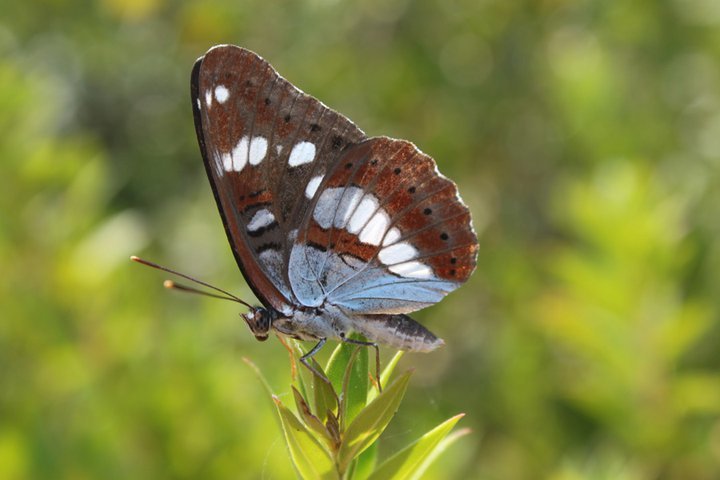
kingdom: Animalia
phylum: Arthropoda
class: Insecta
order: Lepidoptera
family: Nymphalidae
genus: Limenitis
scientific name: Limenitis reducta
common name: Southern white admiral
